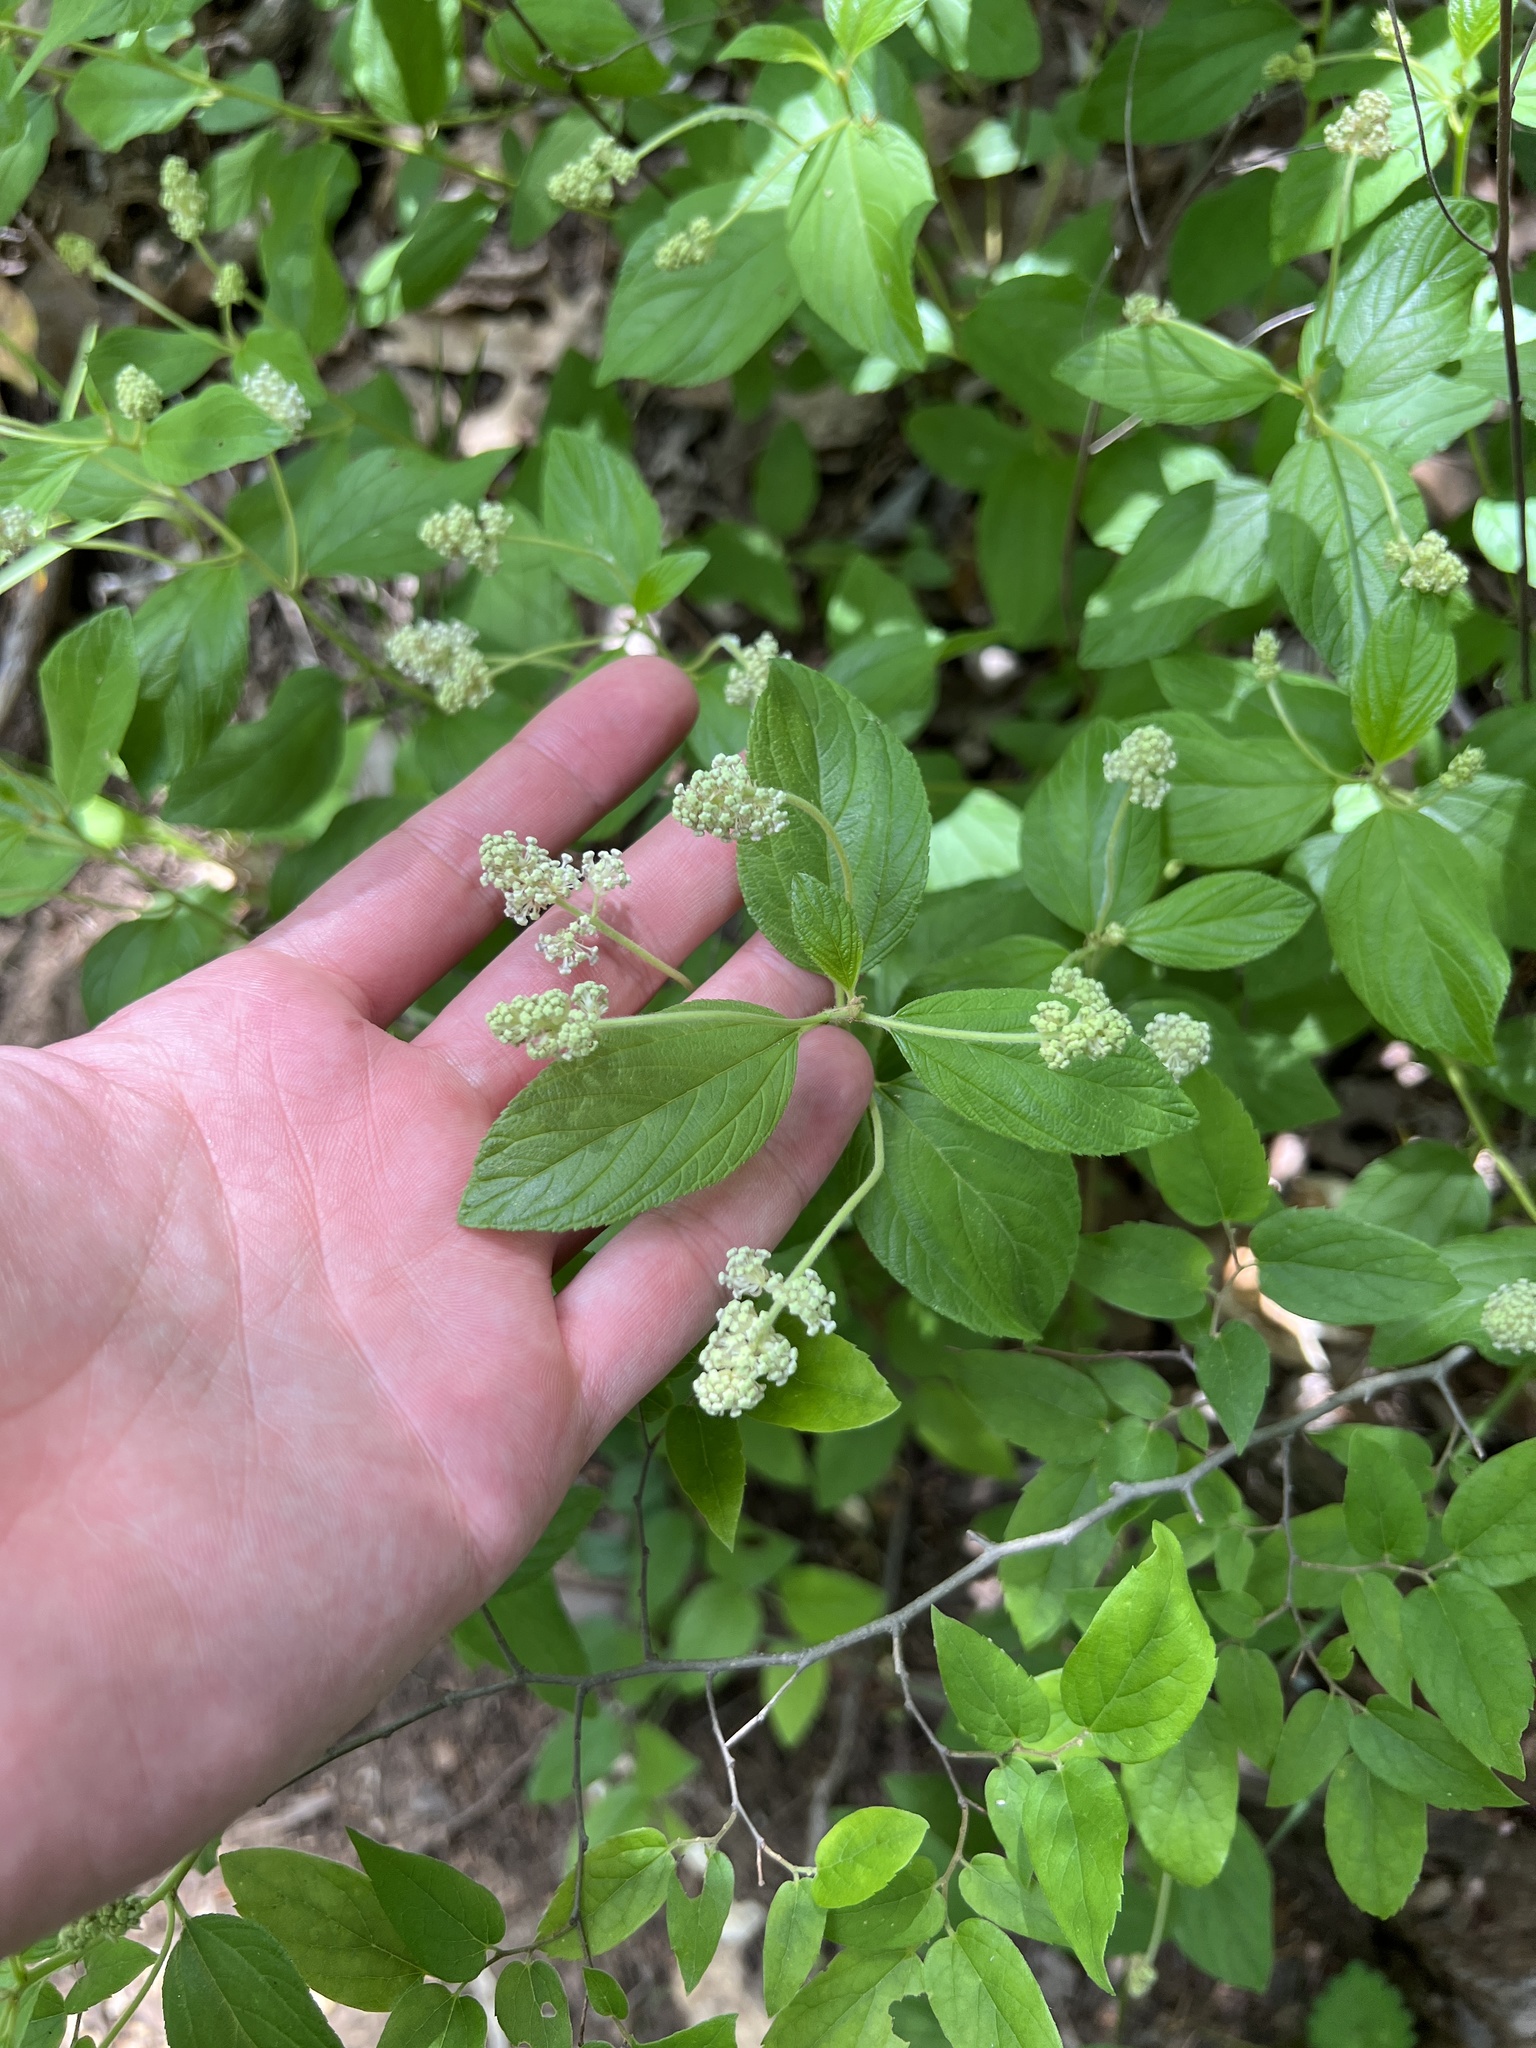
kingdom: Plantae
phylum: Tracheophyta
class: Magnoliopsida
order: Rosales
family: Rhamnaceae
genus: Ceanothus
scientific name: Ceanothus americanus
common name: Redroot
